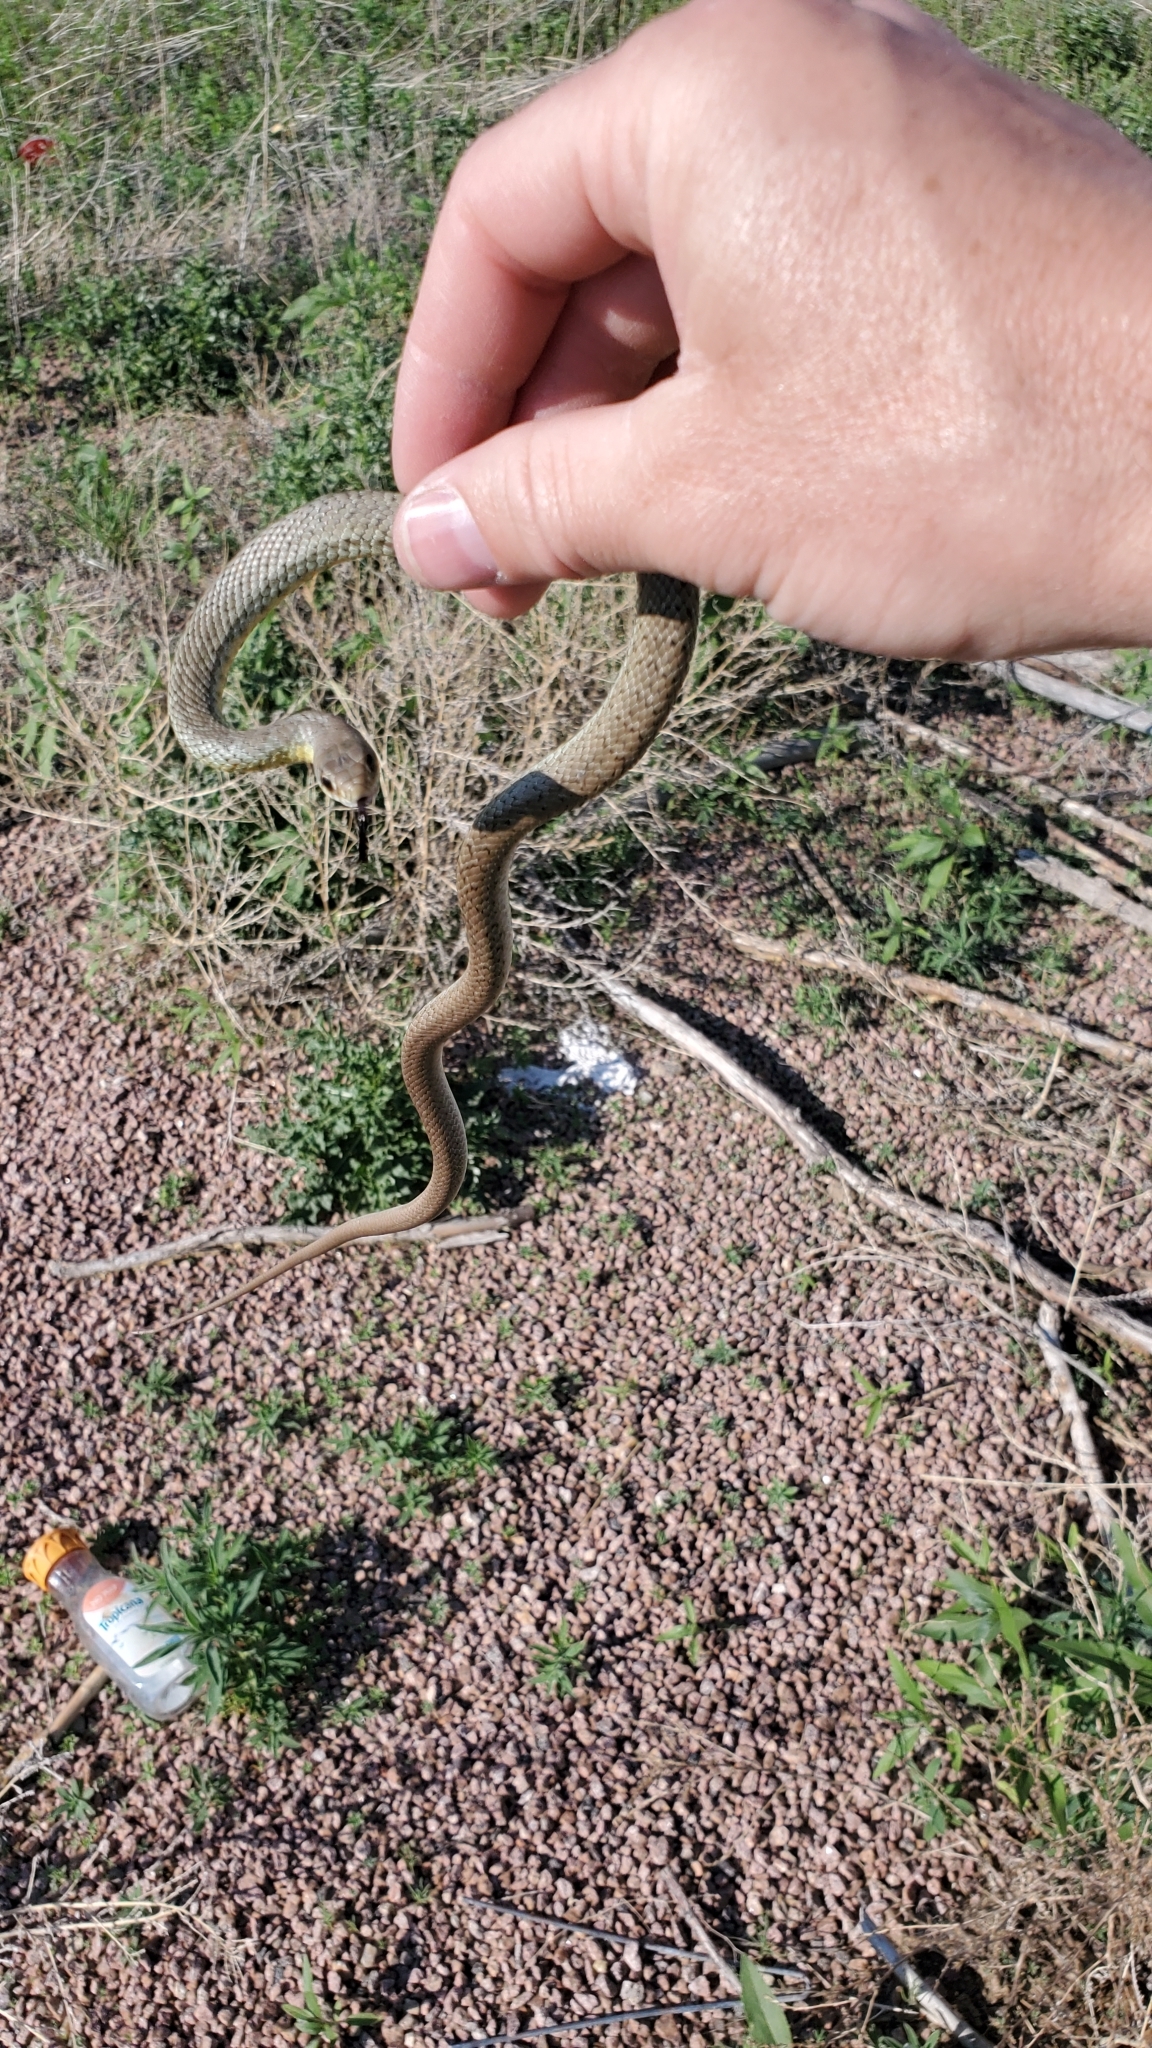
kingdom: Animalia
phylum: Chordata
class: Squamata
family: Colubridae
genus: Coluber
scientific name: Coluber constrictor
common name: Eastern racer
